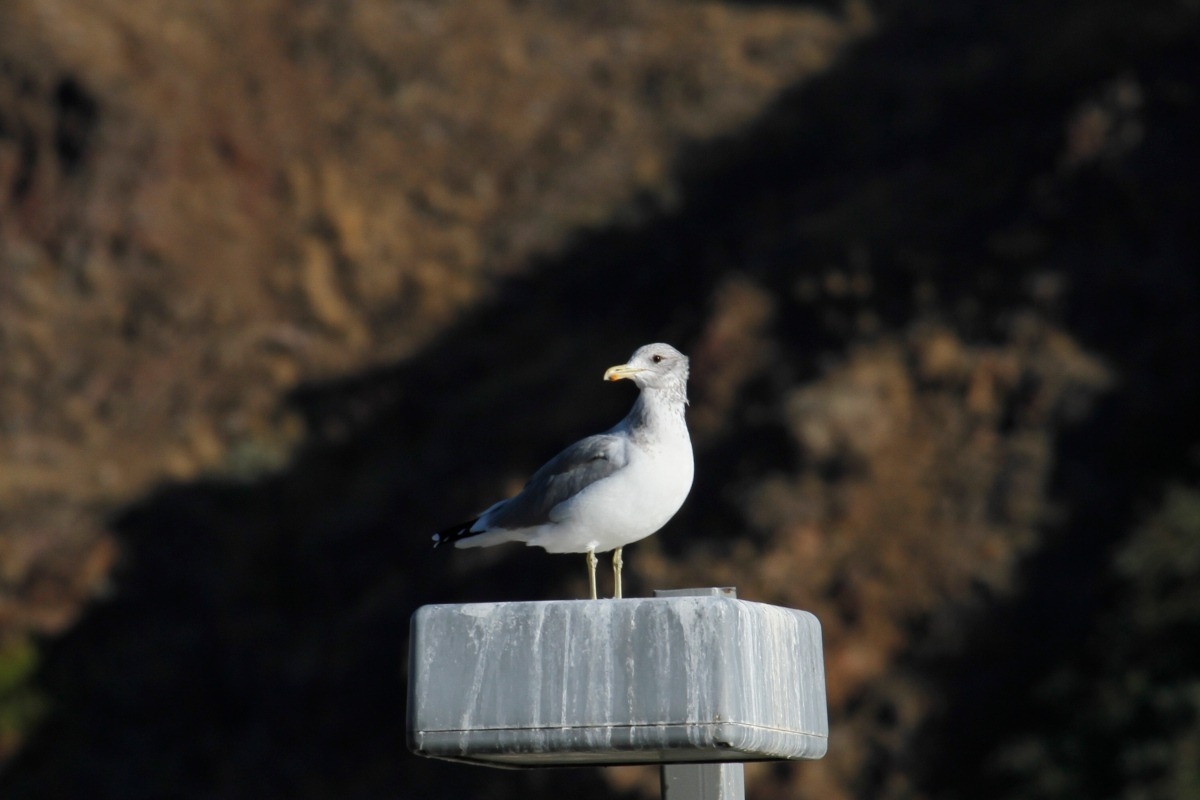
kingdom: Animalia
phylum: Chordata
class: Aves
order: Charadriiformes
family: Laridae
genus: Larus
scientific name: Larus californicus
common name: California gull
